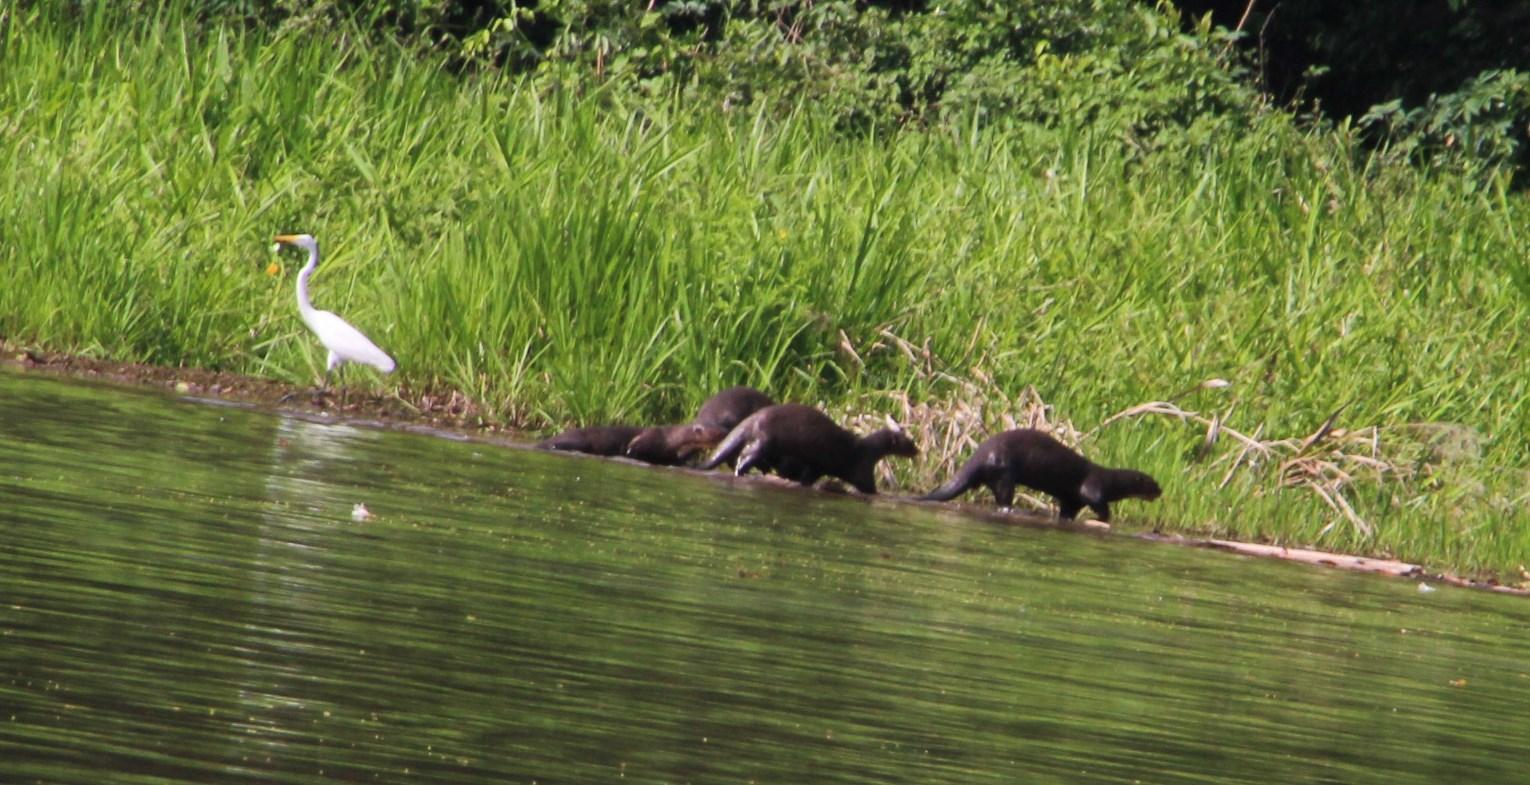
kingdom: Animalia
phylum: Chordata
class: Aves
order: Pelecaniformes
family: Ardeidae
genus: Ardea
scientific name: Ardea alba
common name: Great egret
